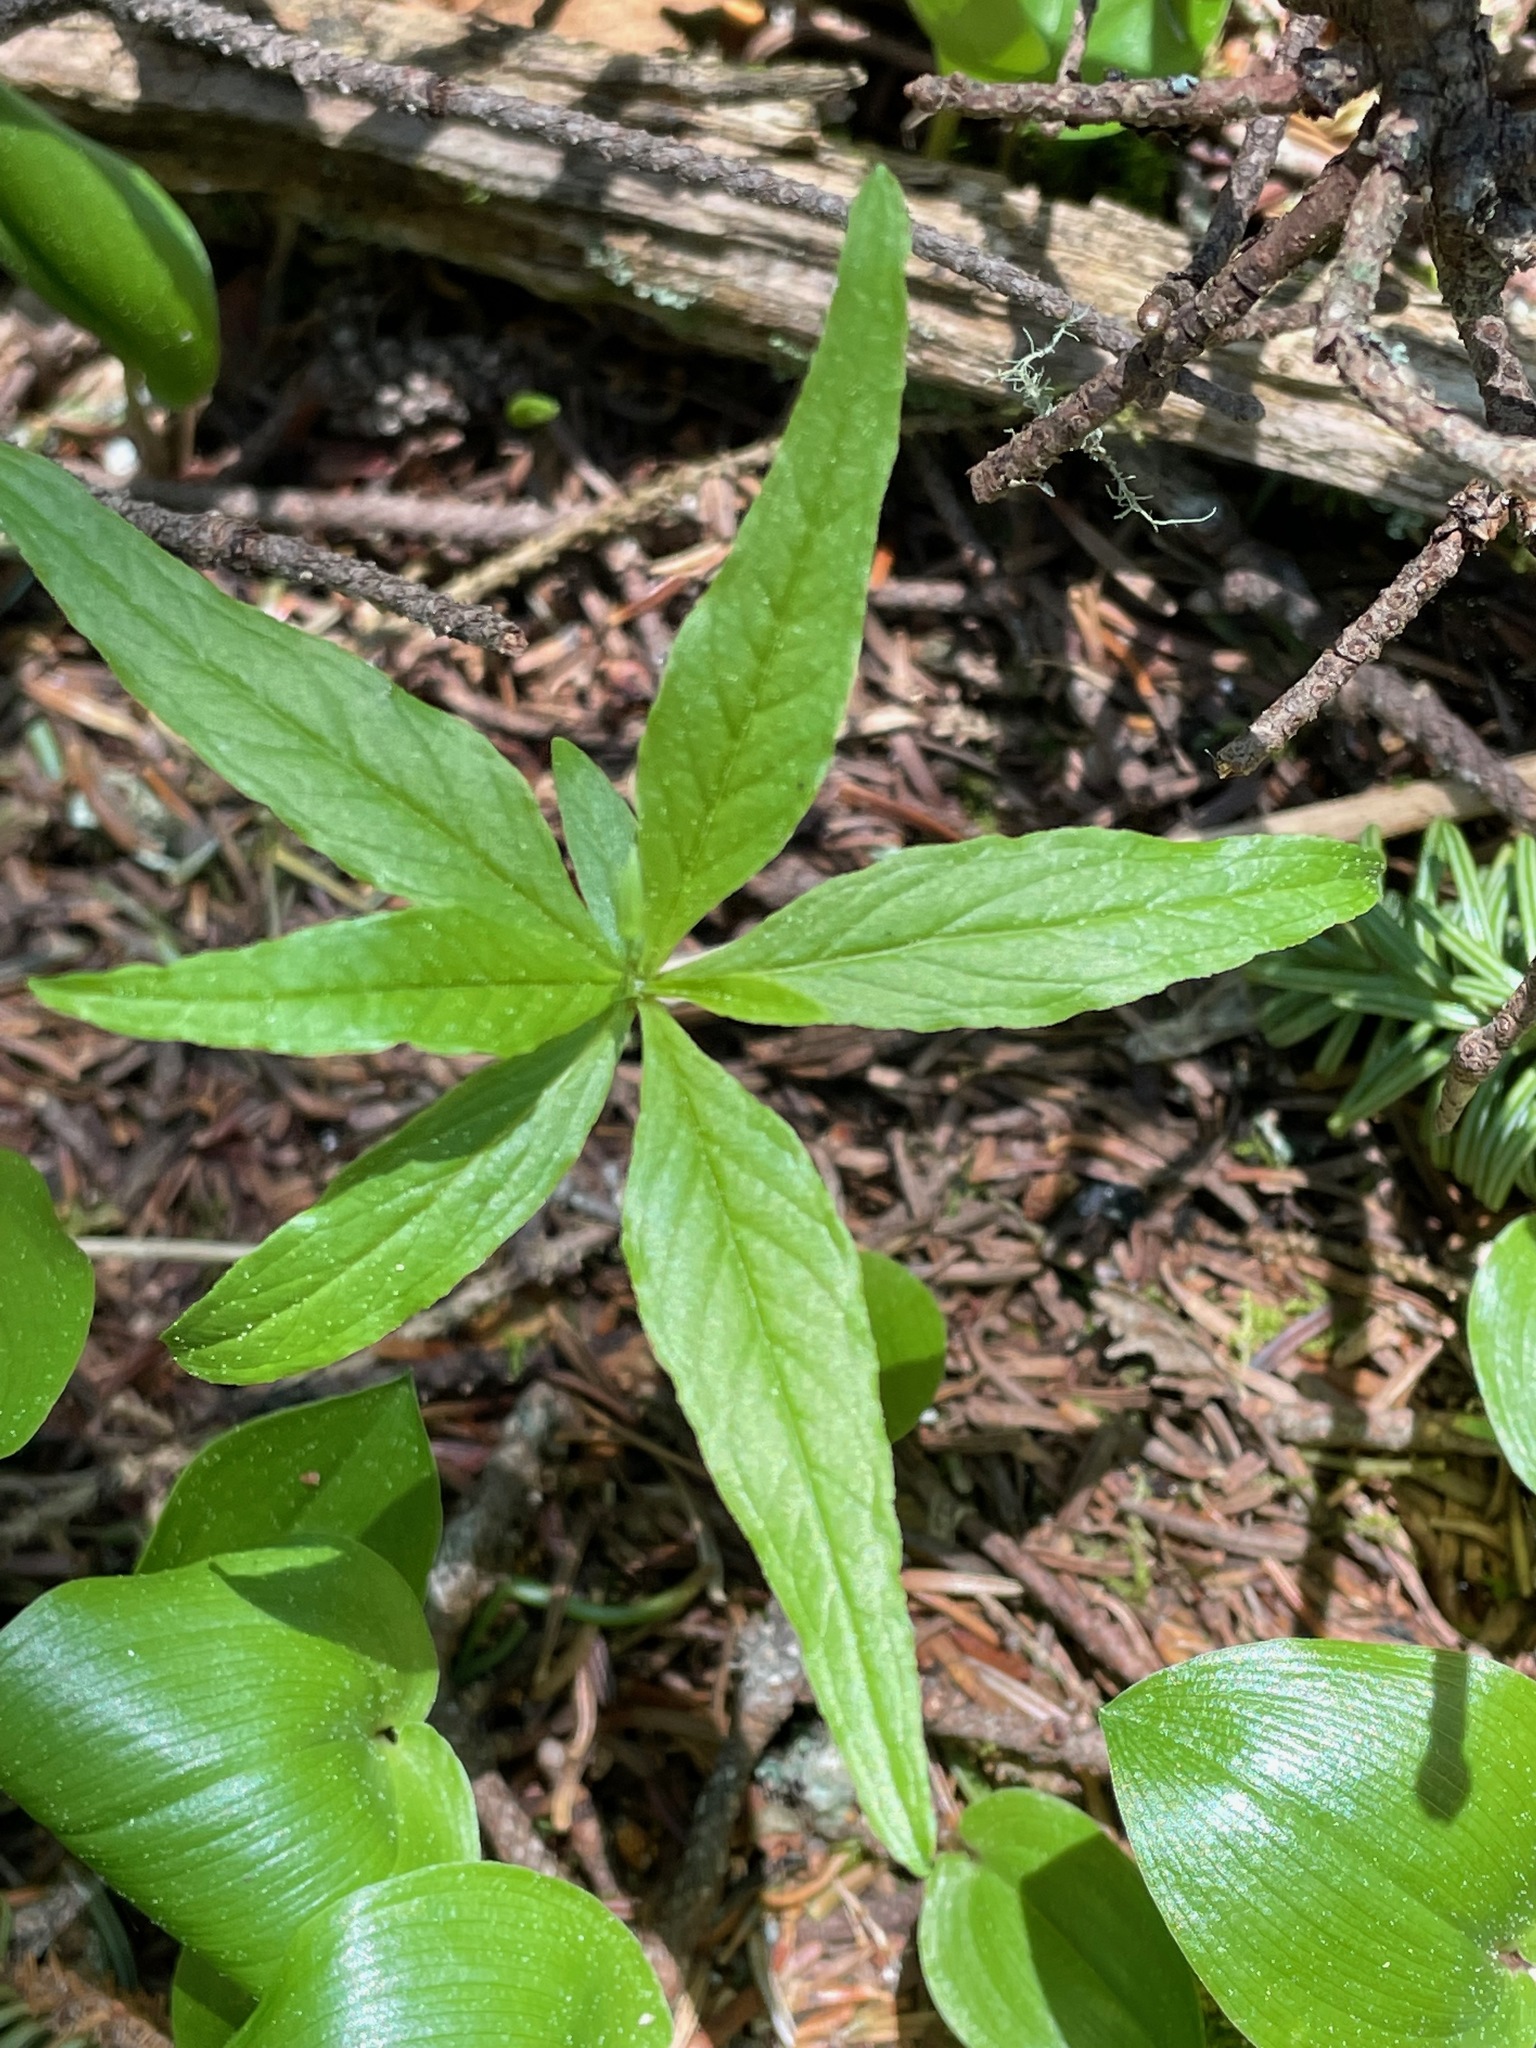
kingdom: Plantae
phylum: Tracheophyta
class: Magnoliopsida
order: Ericales
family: Primulaceae
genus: Lysimachia
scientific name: Lysimachia borealis
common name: American starflower
